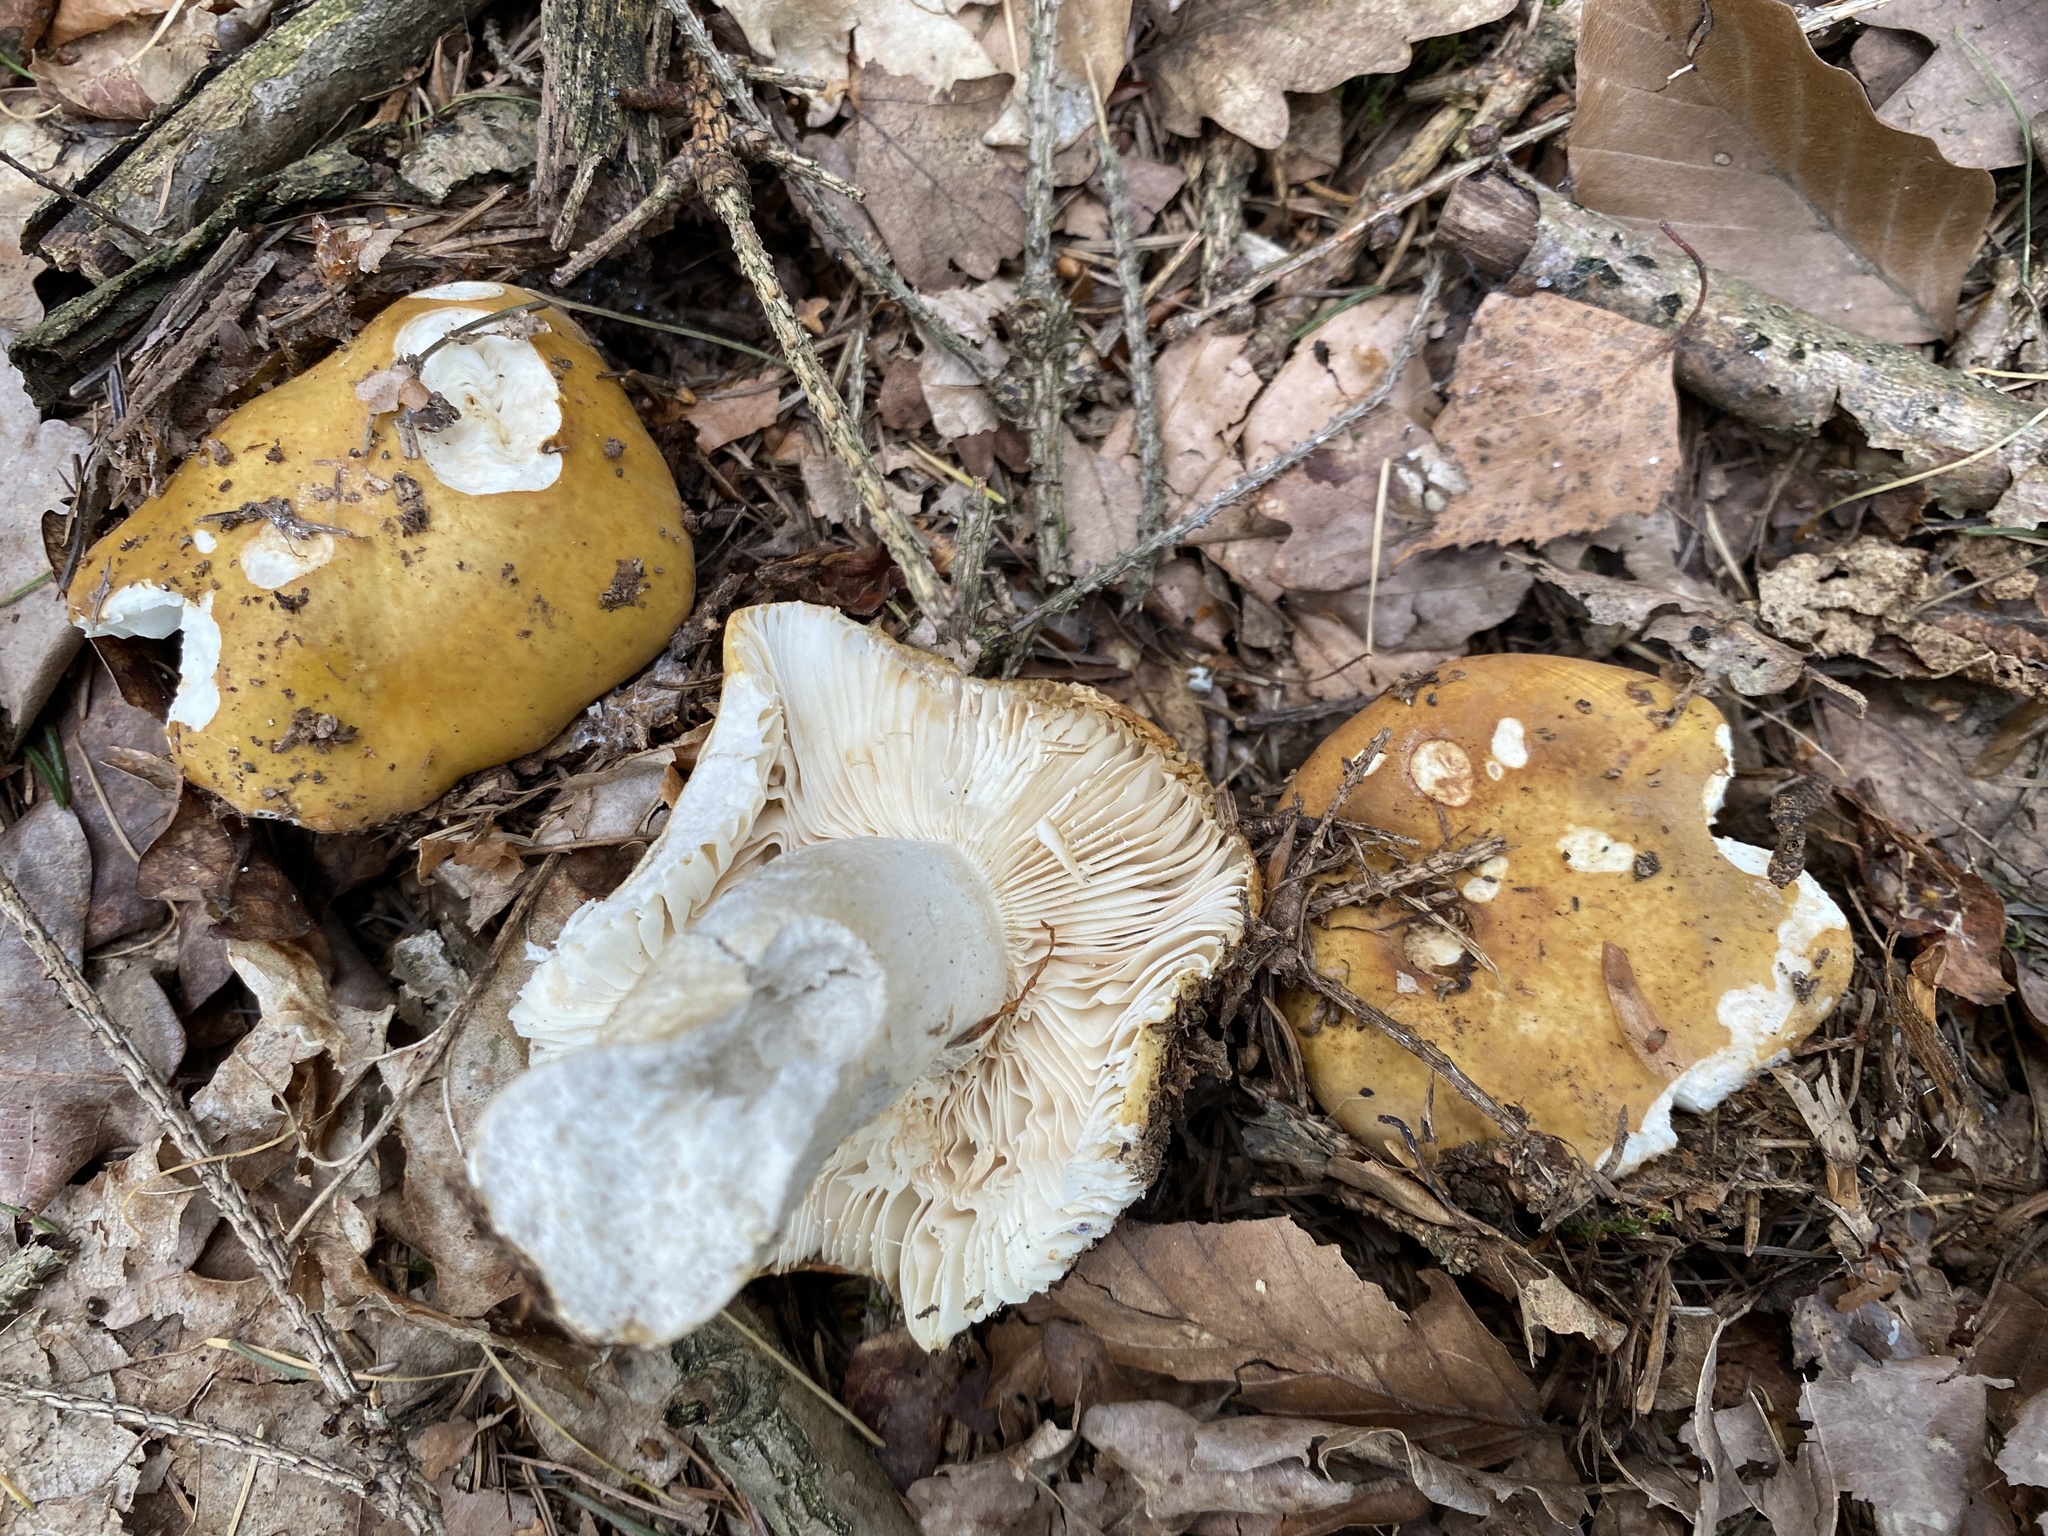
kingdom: Fungi
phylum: Basidiomycota
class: Agaricomycetes
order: Russulales
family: Russulaceae
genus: Russula
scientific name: Russula ochroleuca
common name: Common yellow russula
